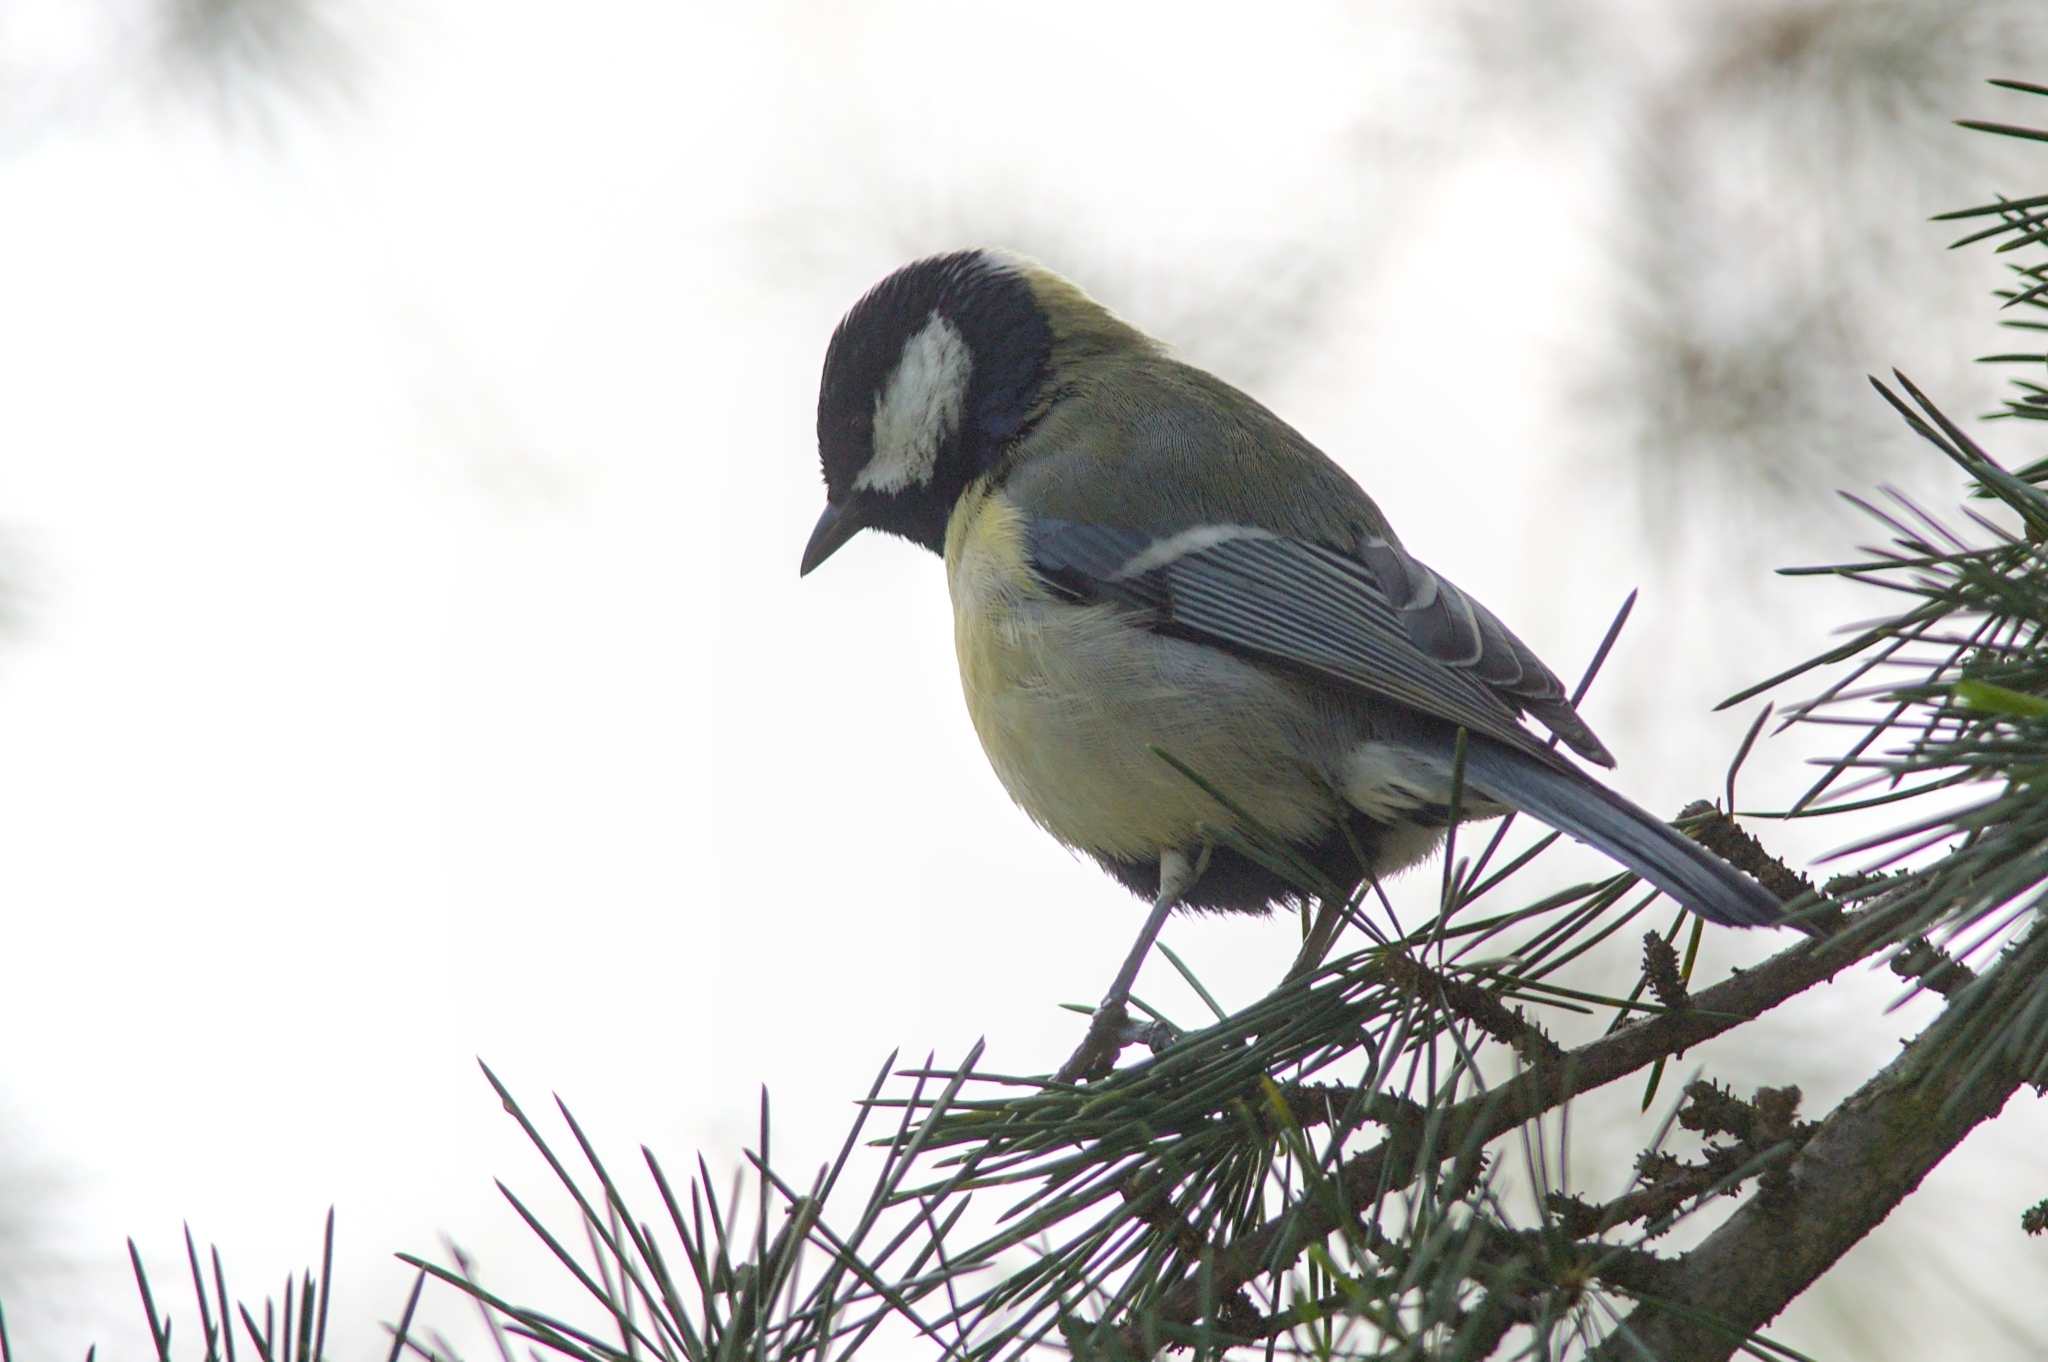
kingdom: Animalia
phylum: Chordata
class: Aves
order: Passeriformes
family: Paridae
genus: Parus
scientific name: Parus major
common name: Great tit
